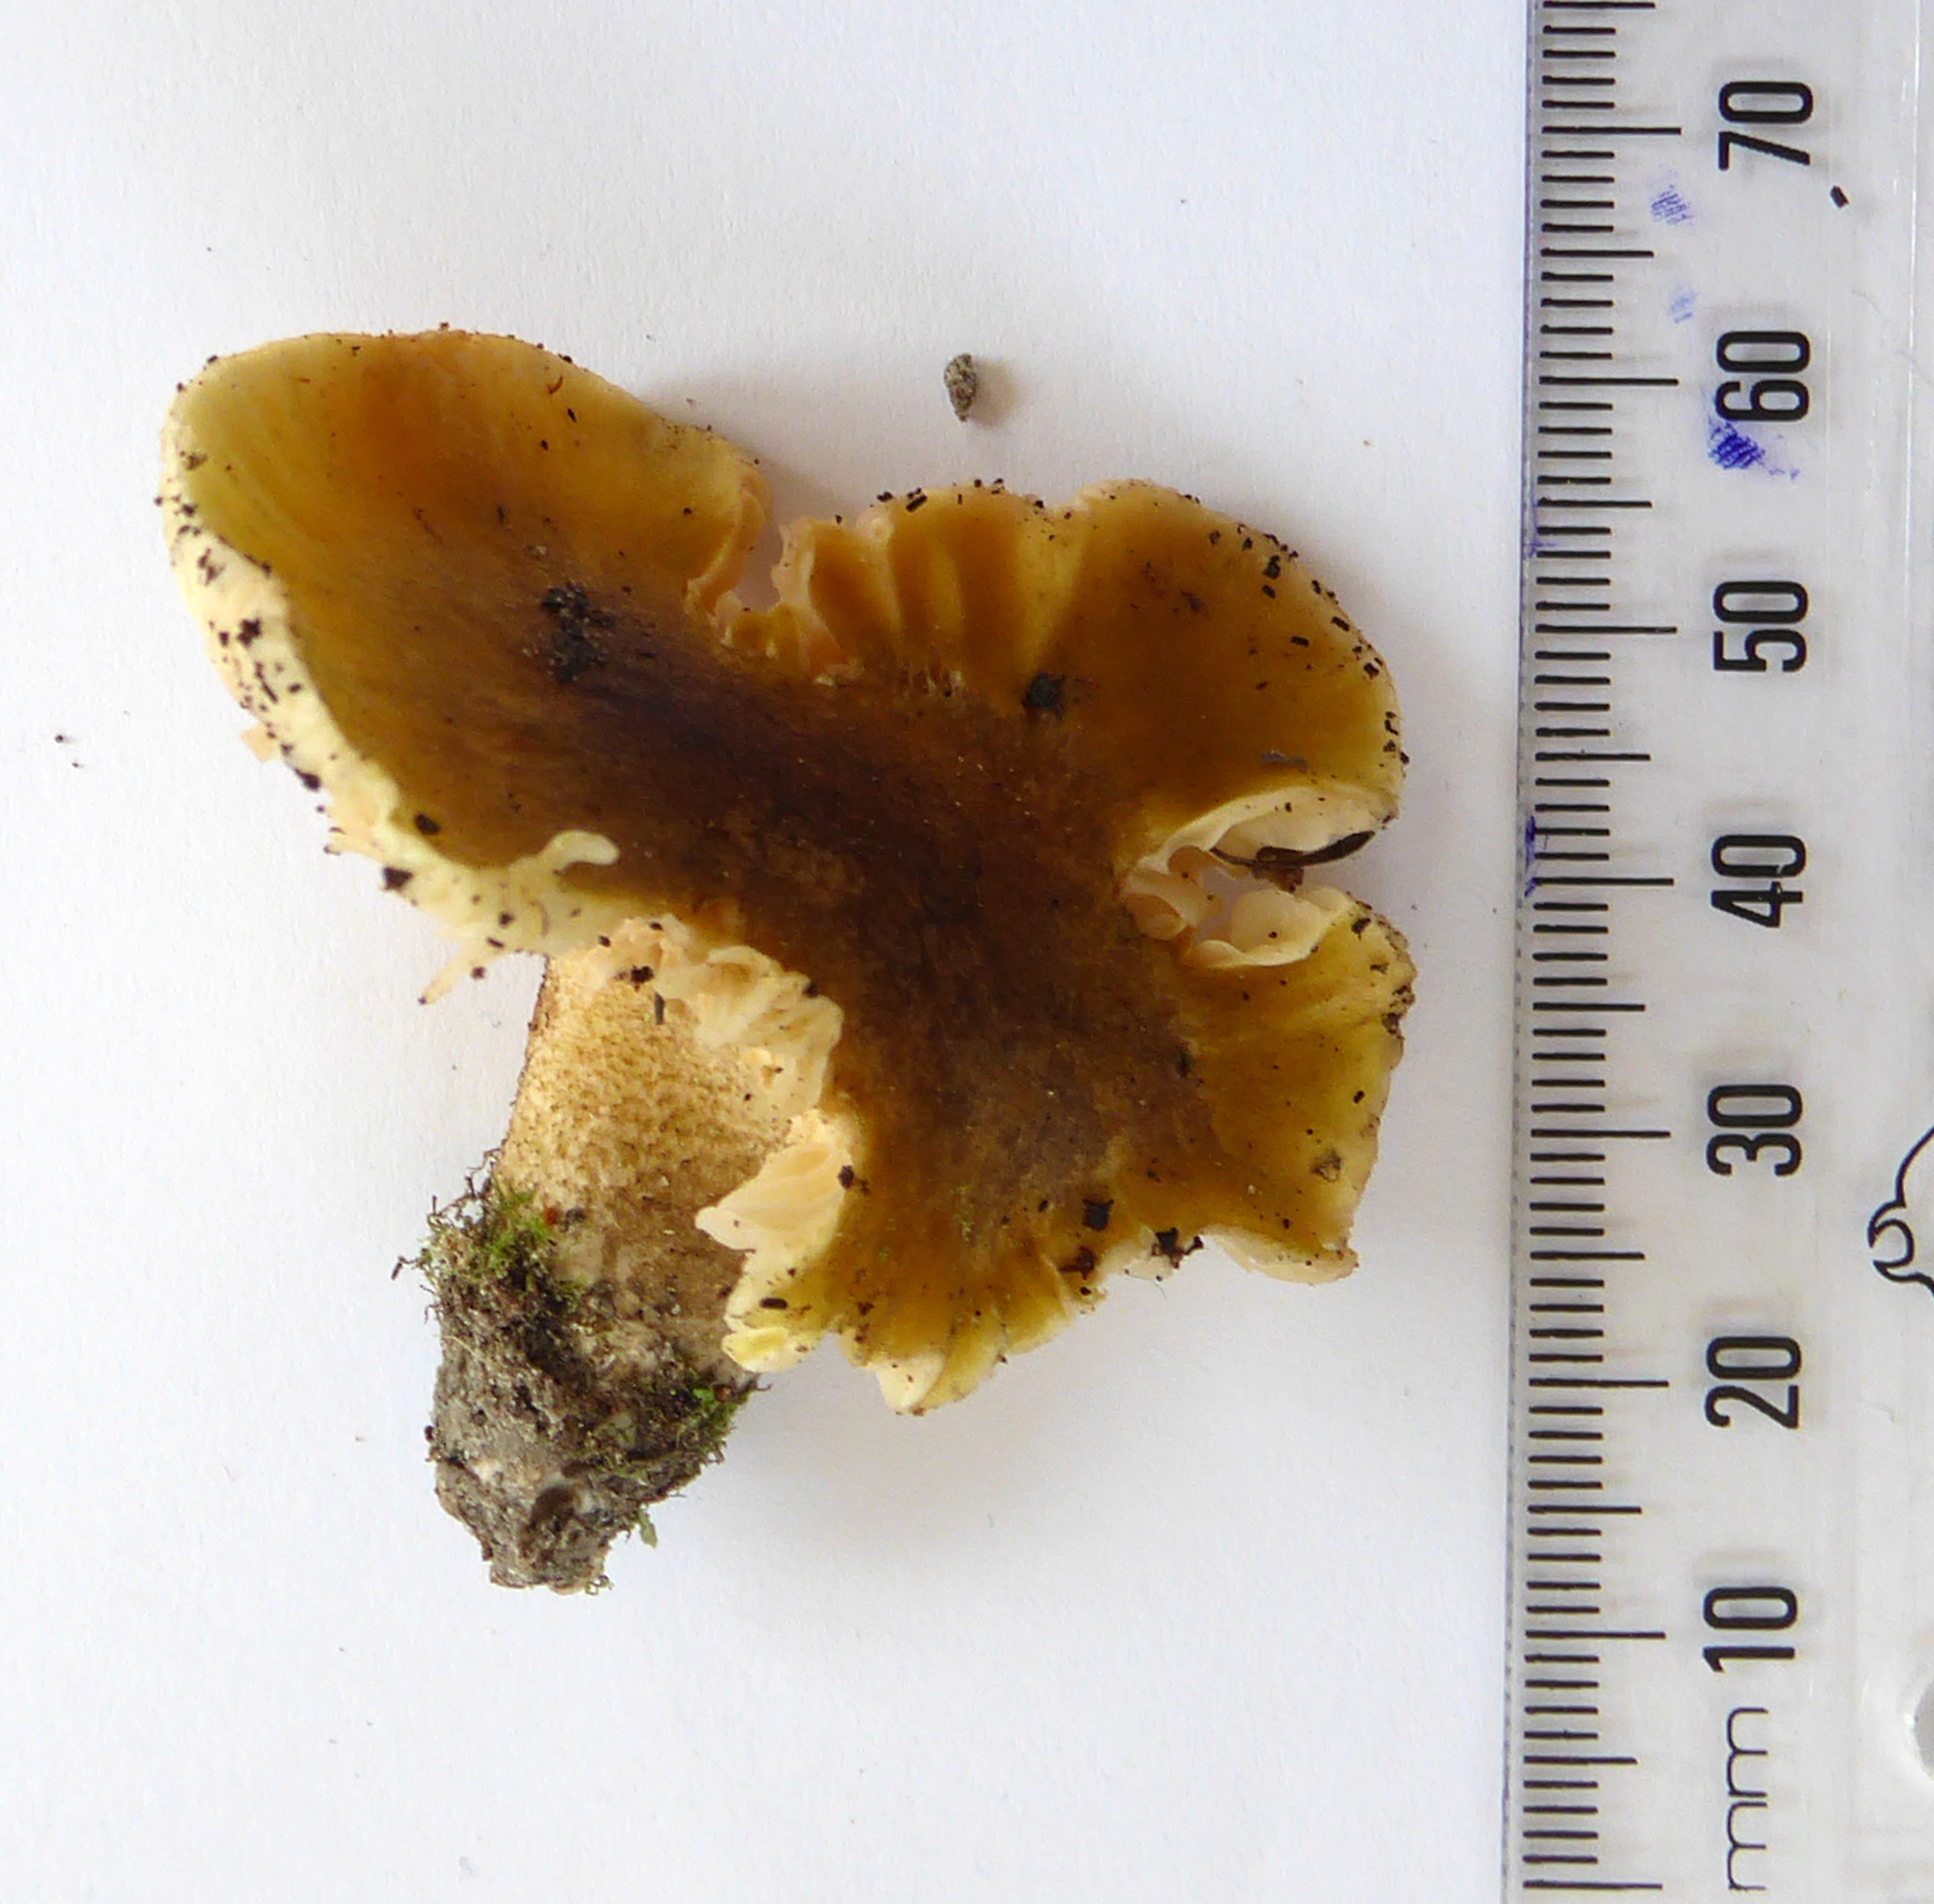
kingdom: Fungi
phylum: Basidiomycota
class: Agaricomycetes
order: Agaricales
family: Tricholomataceae
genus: Tricholoma
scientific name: Tricholoma viridiolivaceum
